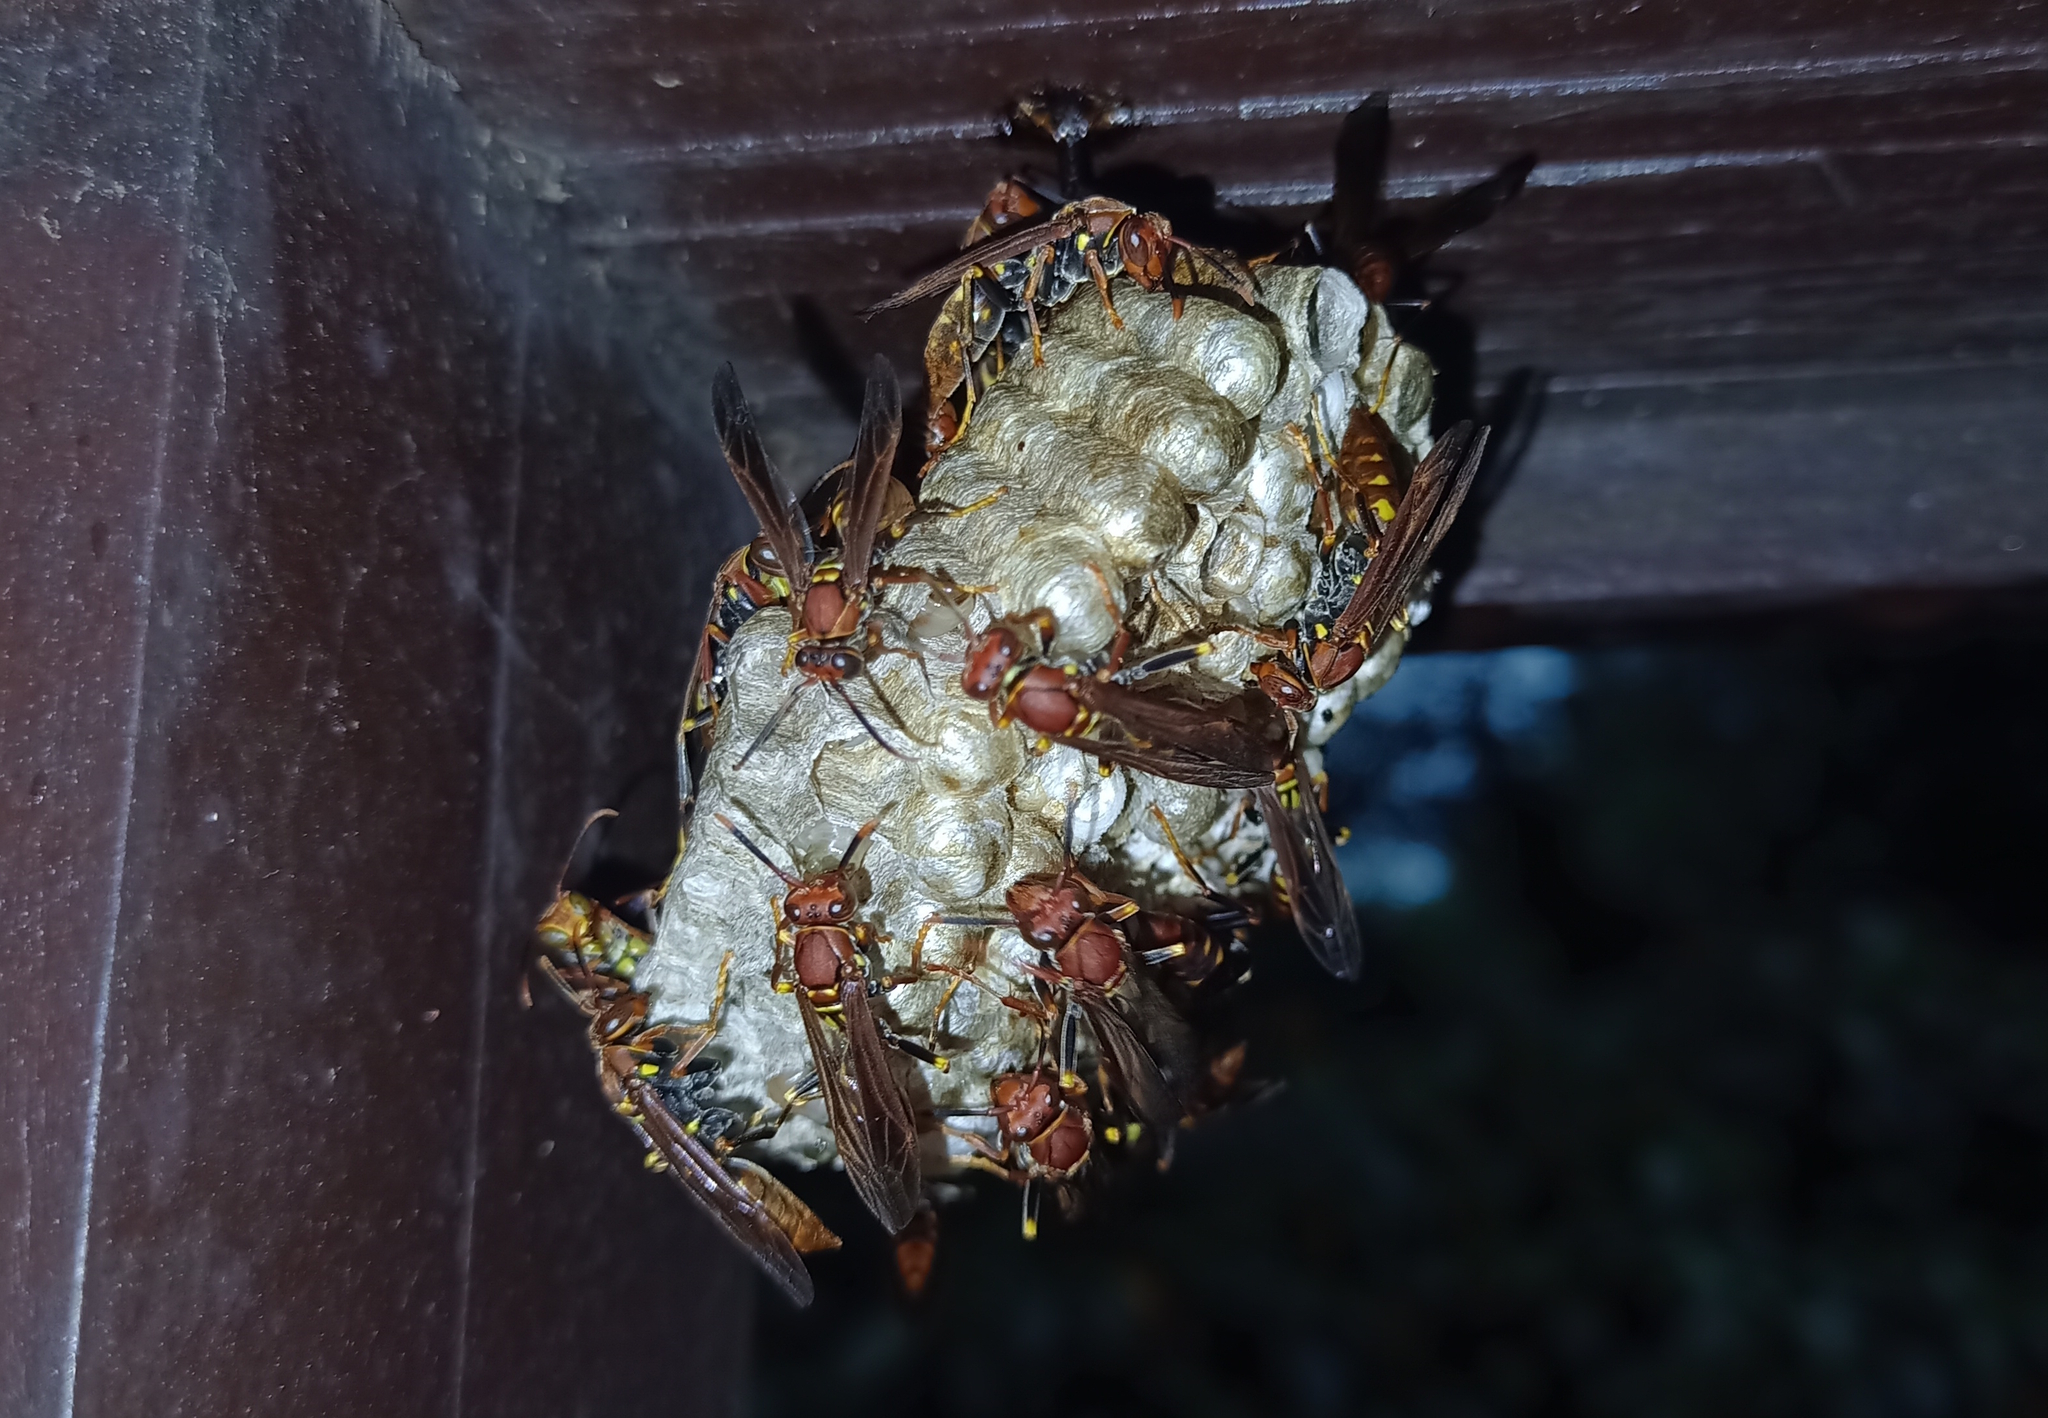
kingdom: Animalia
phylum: Arthropoda
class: Insecta
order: Hymenoptera
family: Eumenidae
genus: Polistes
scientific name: Polistes versicolor
